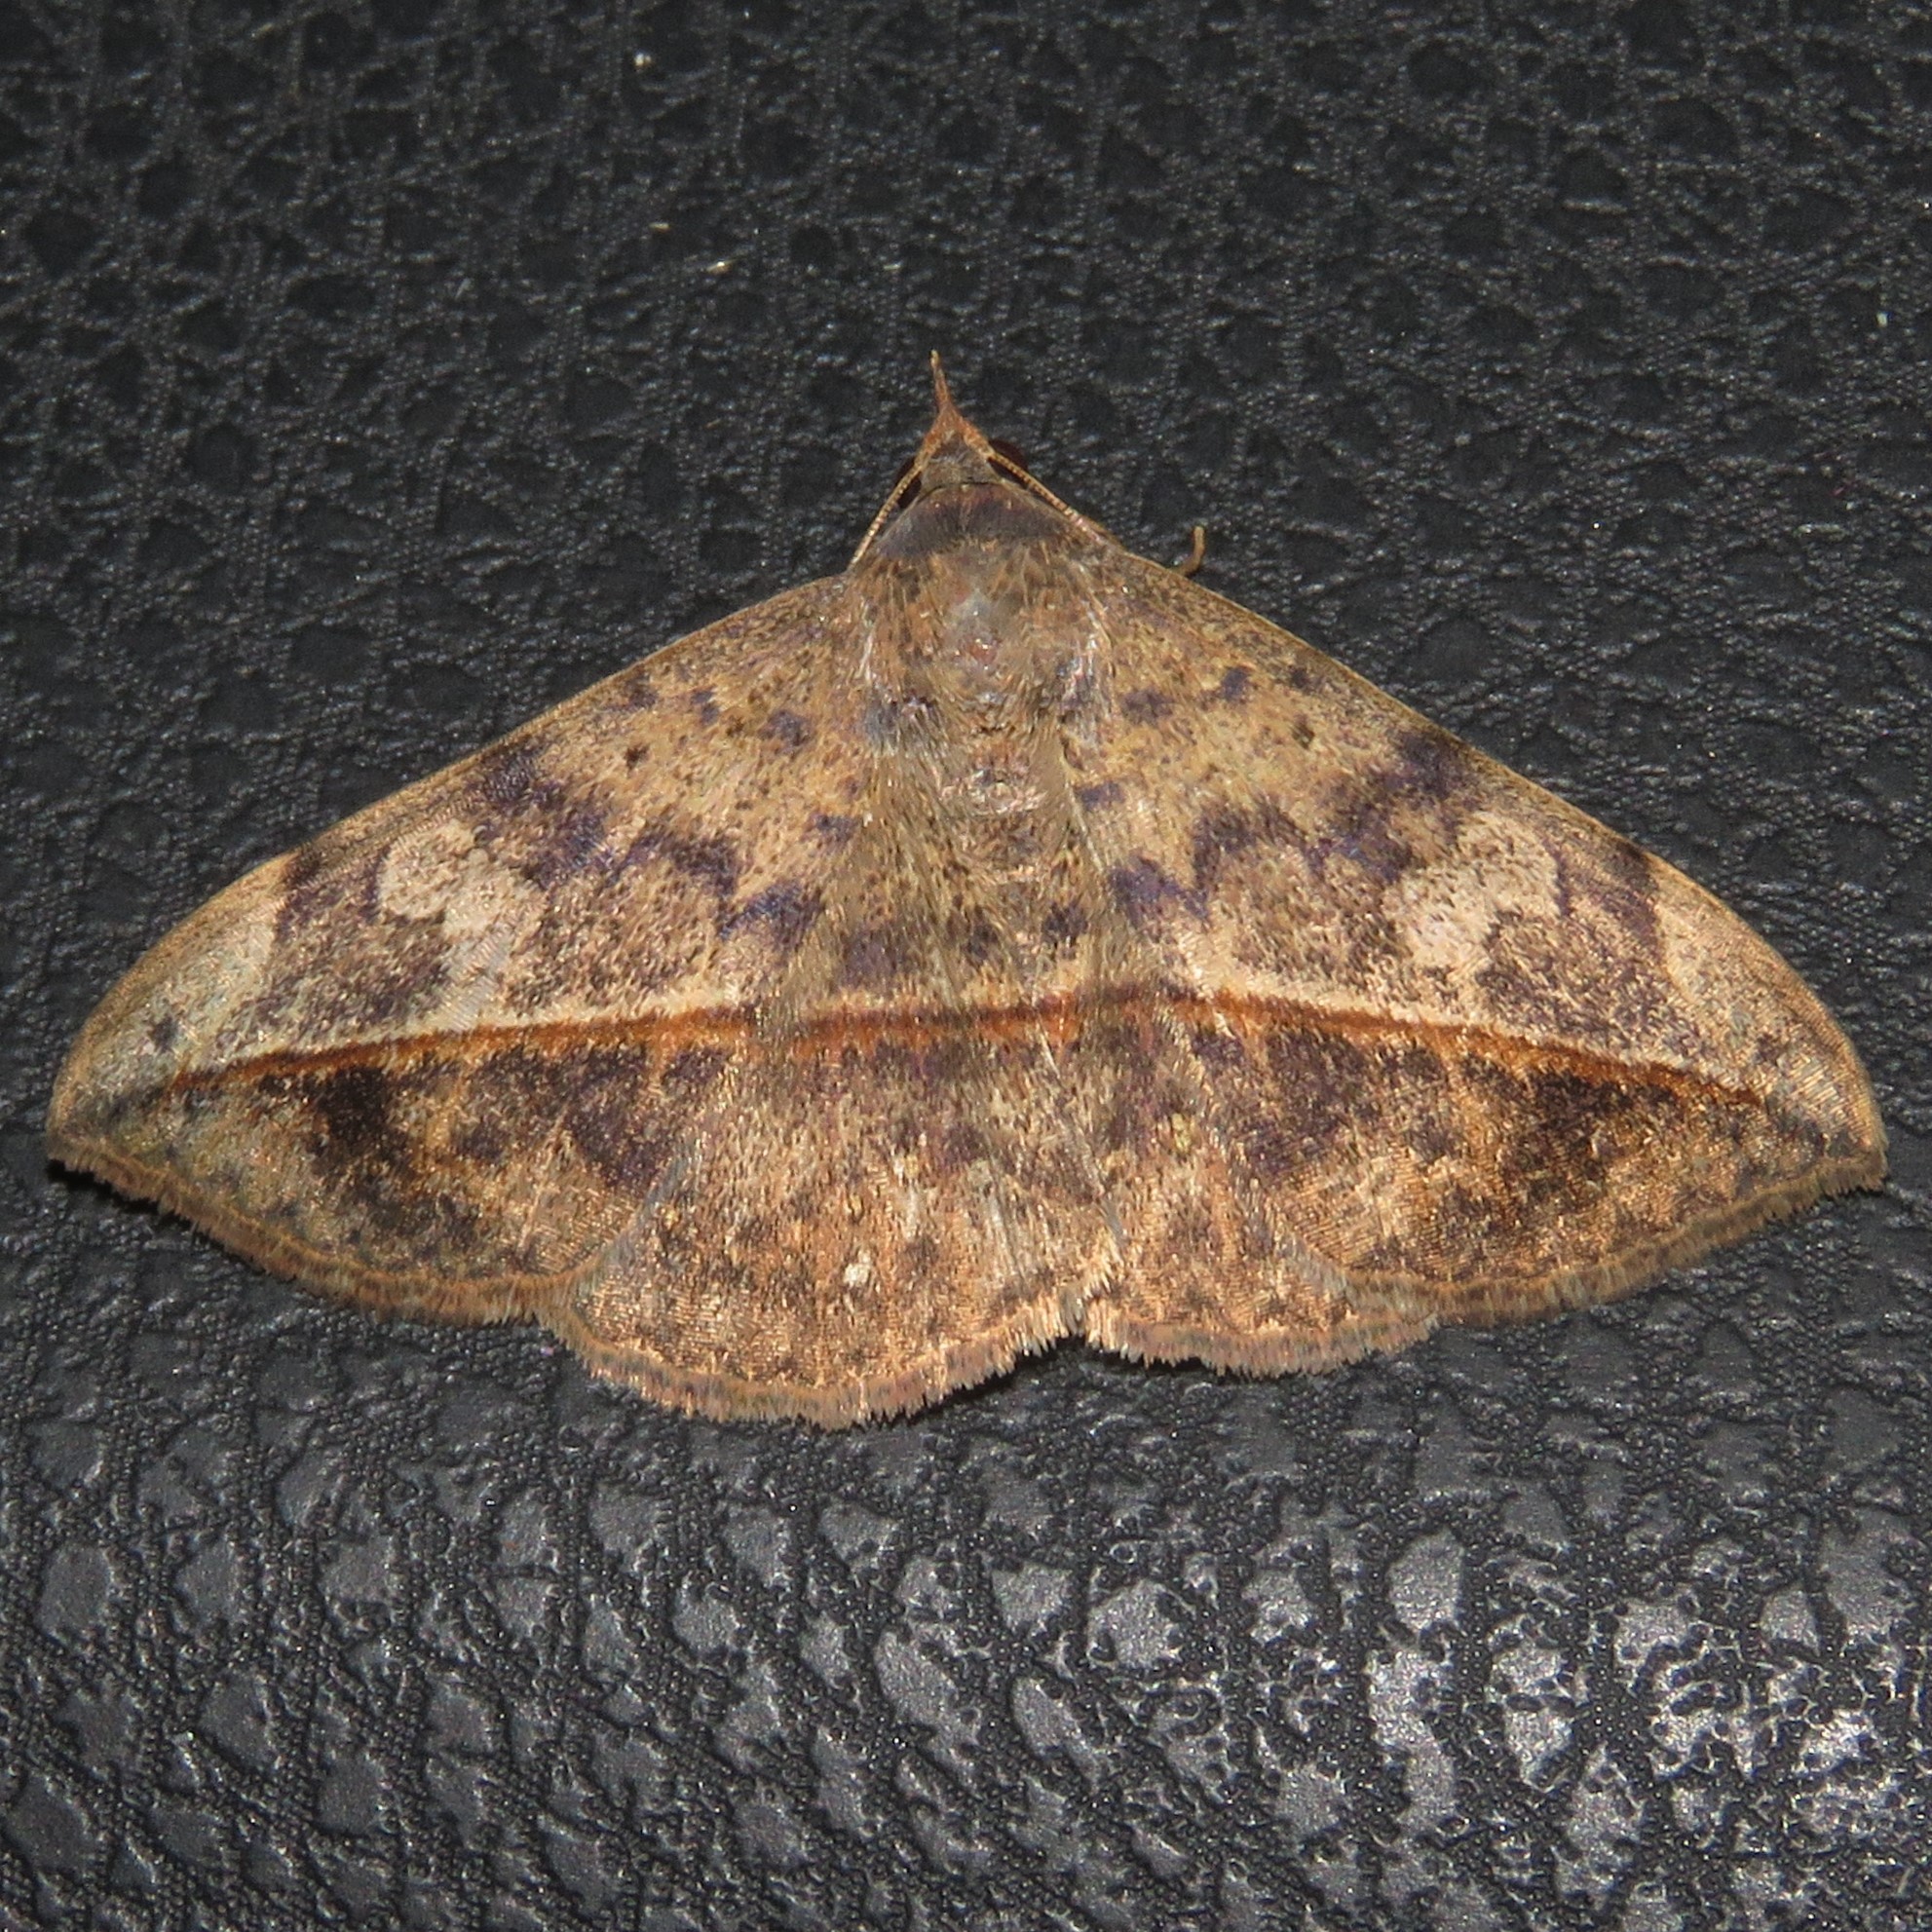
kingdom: Animalia
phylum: Arthropoda
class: Insecta
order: Lepidoptera
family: Erebidae
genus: Anticarsia
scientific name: Anticarsia gemmatalis
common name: Cutworm moth
